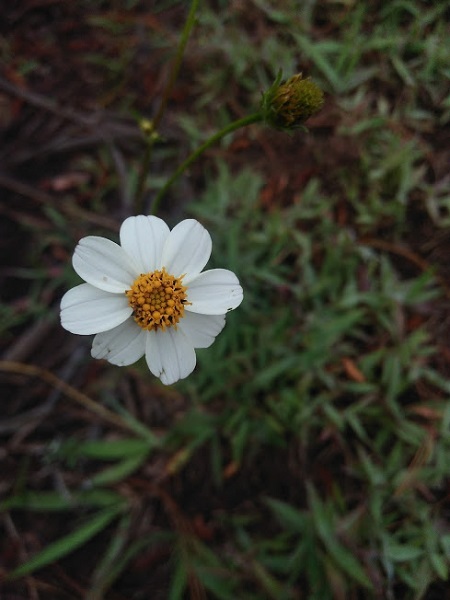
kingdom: Plantae
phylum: Tracheophyta
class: Magnoliopsida
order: Asterales
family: Asteraceae
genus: Bidens
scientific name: Bidens alba
